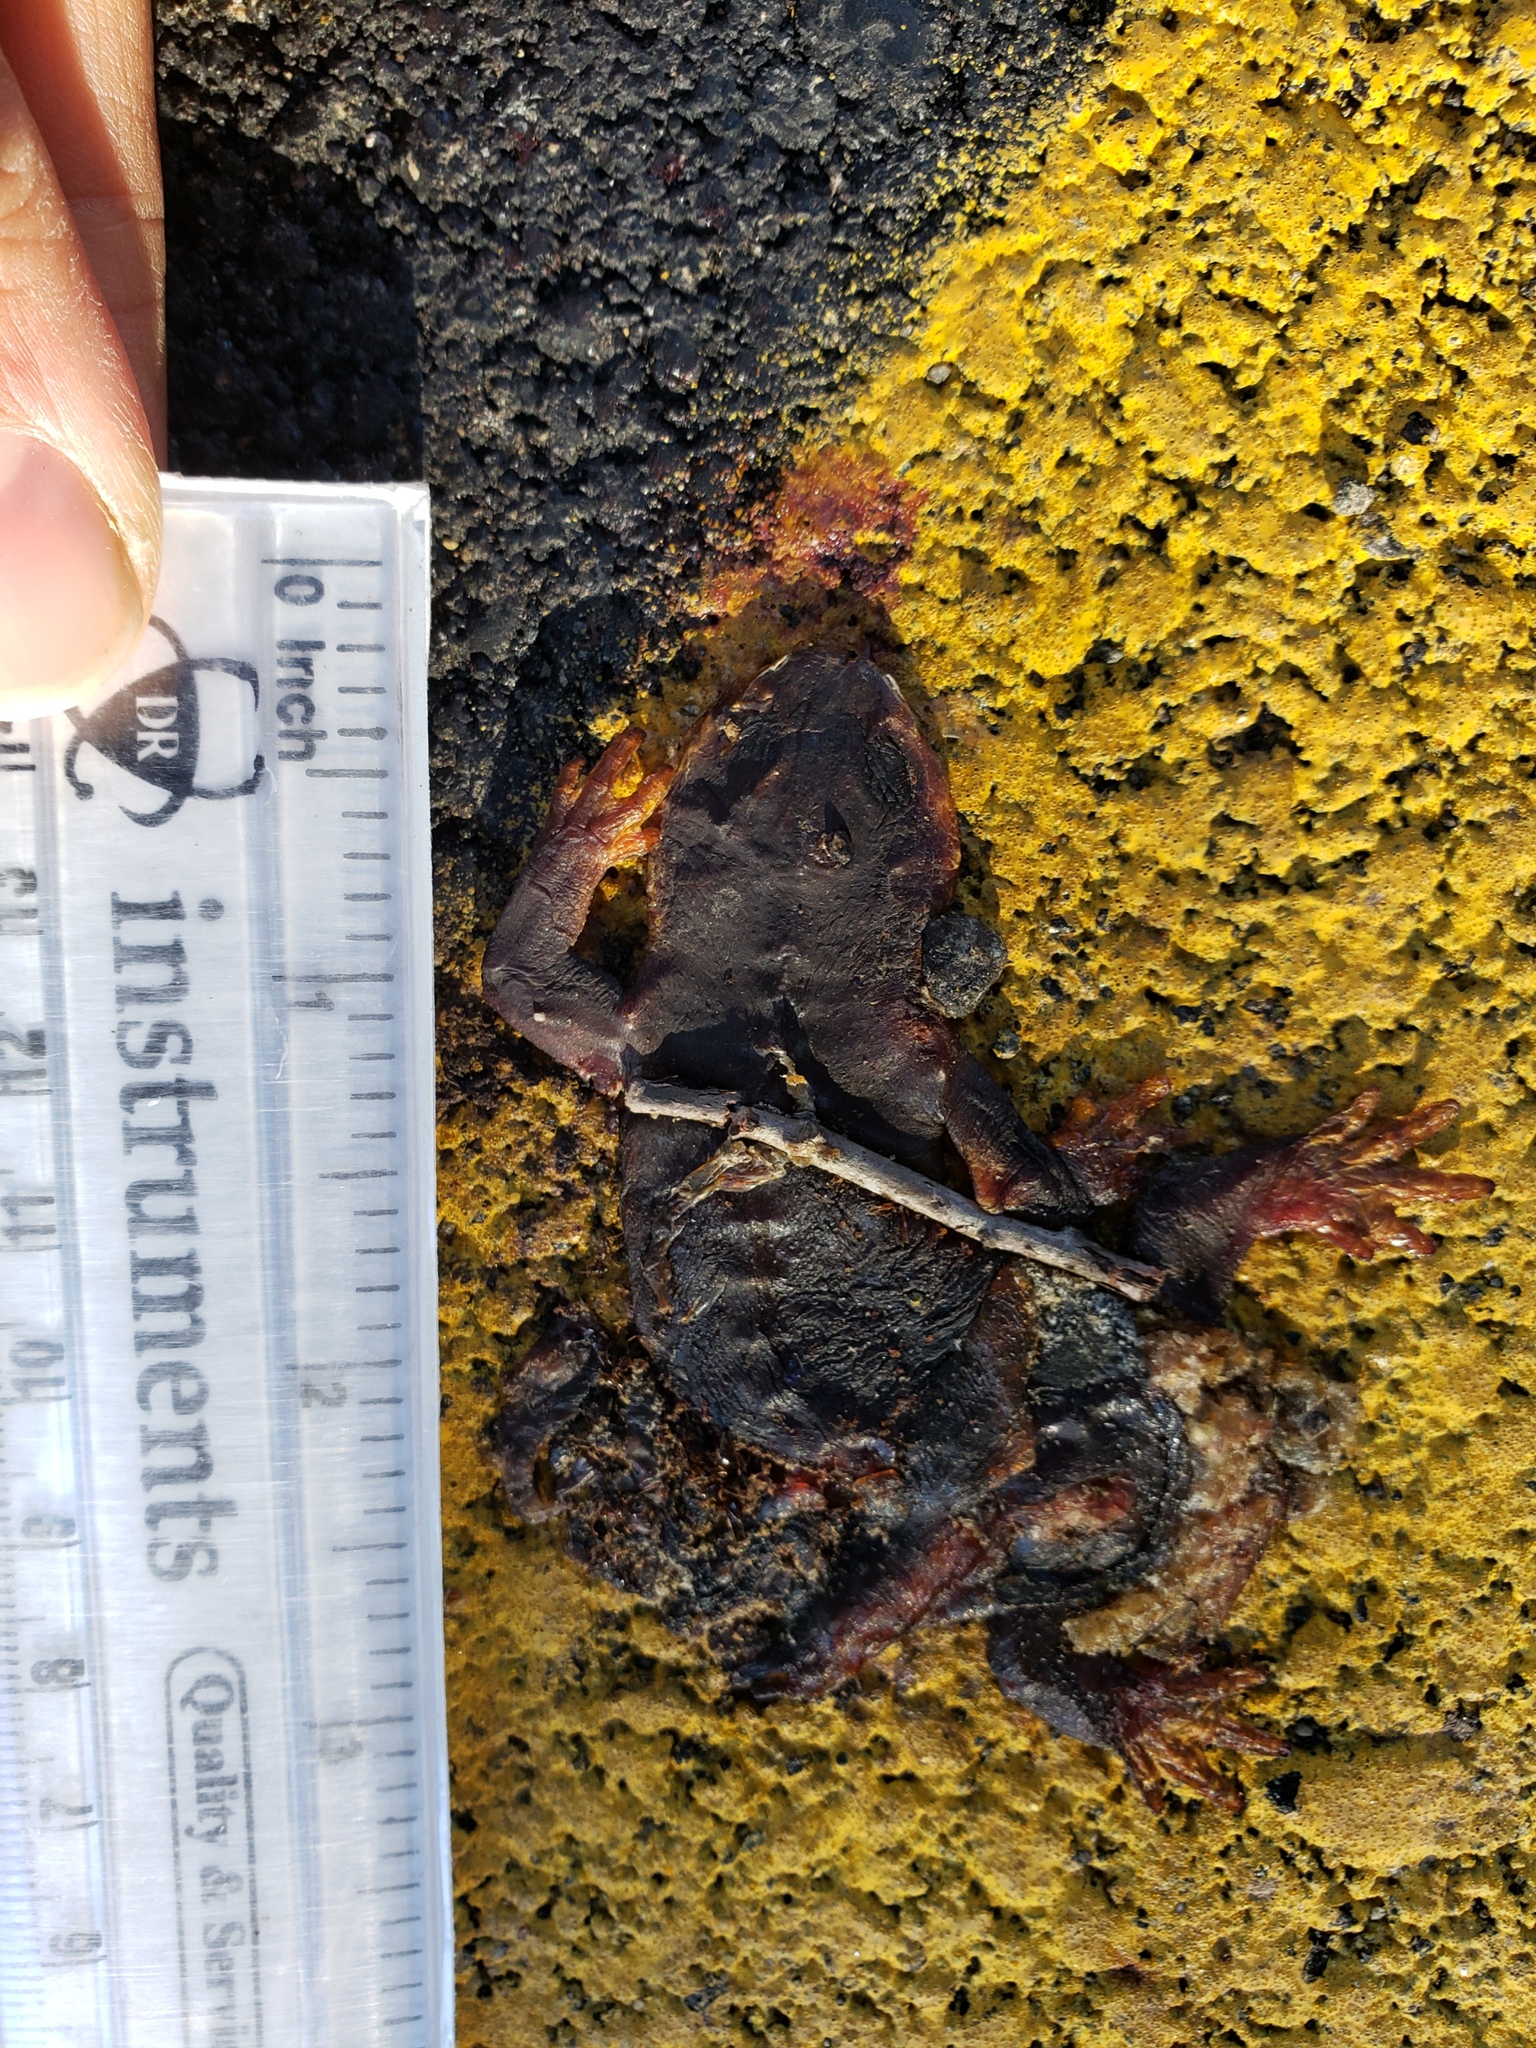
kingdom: Animalia
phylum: Chordata
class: Amphibia
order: Caudata
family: Salamandridae
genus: Taricha
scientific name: Taricha
